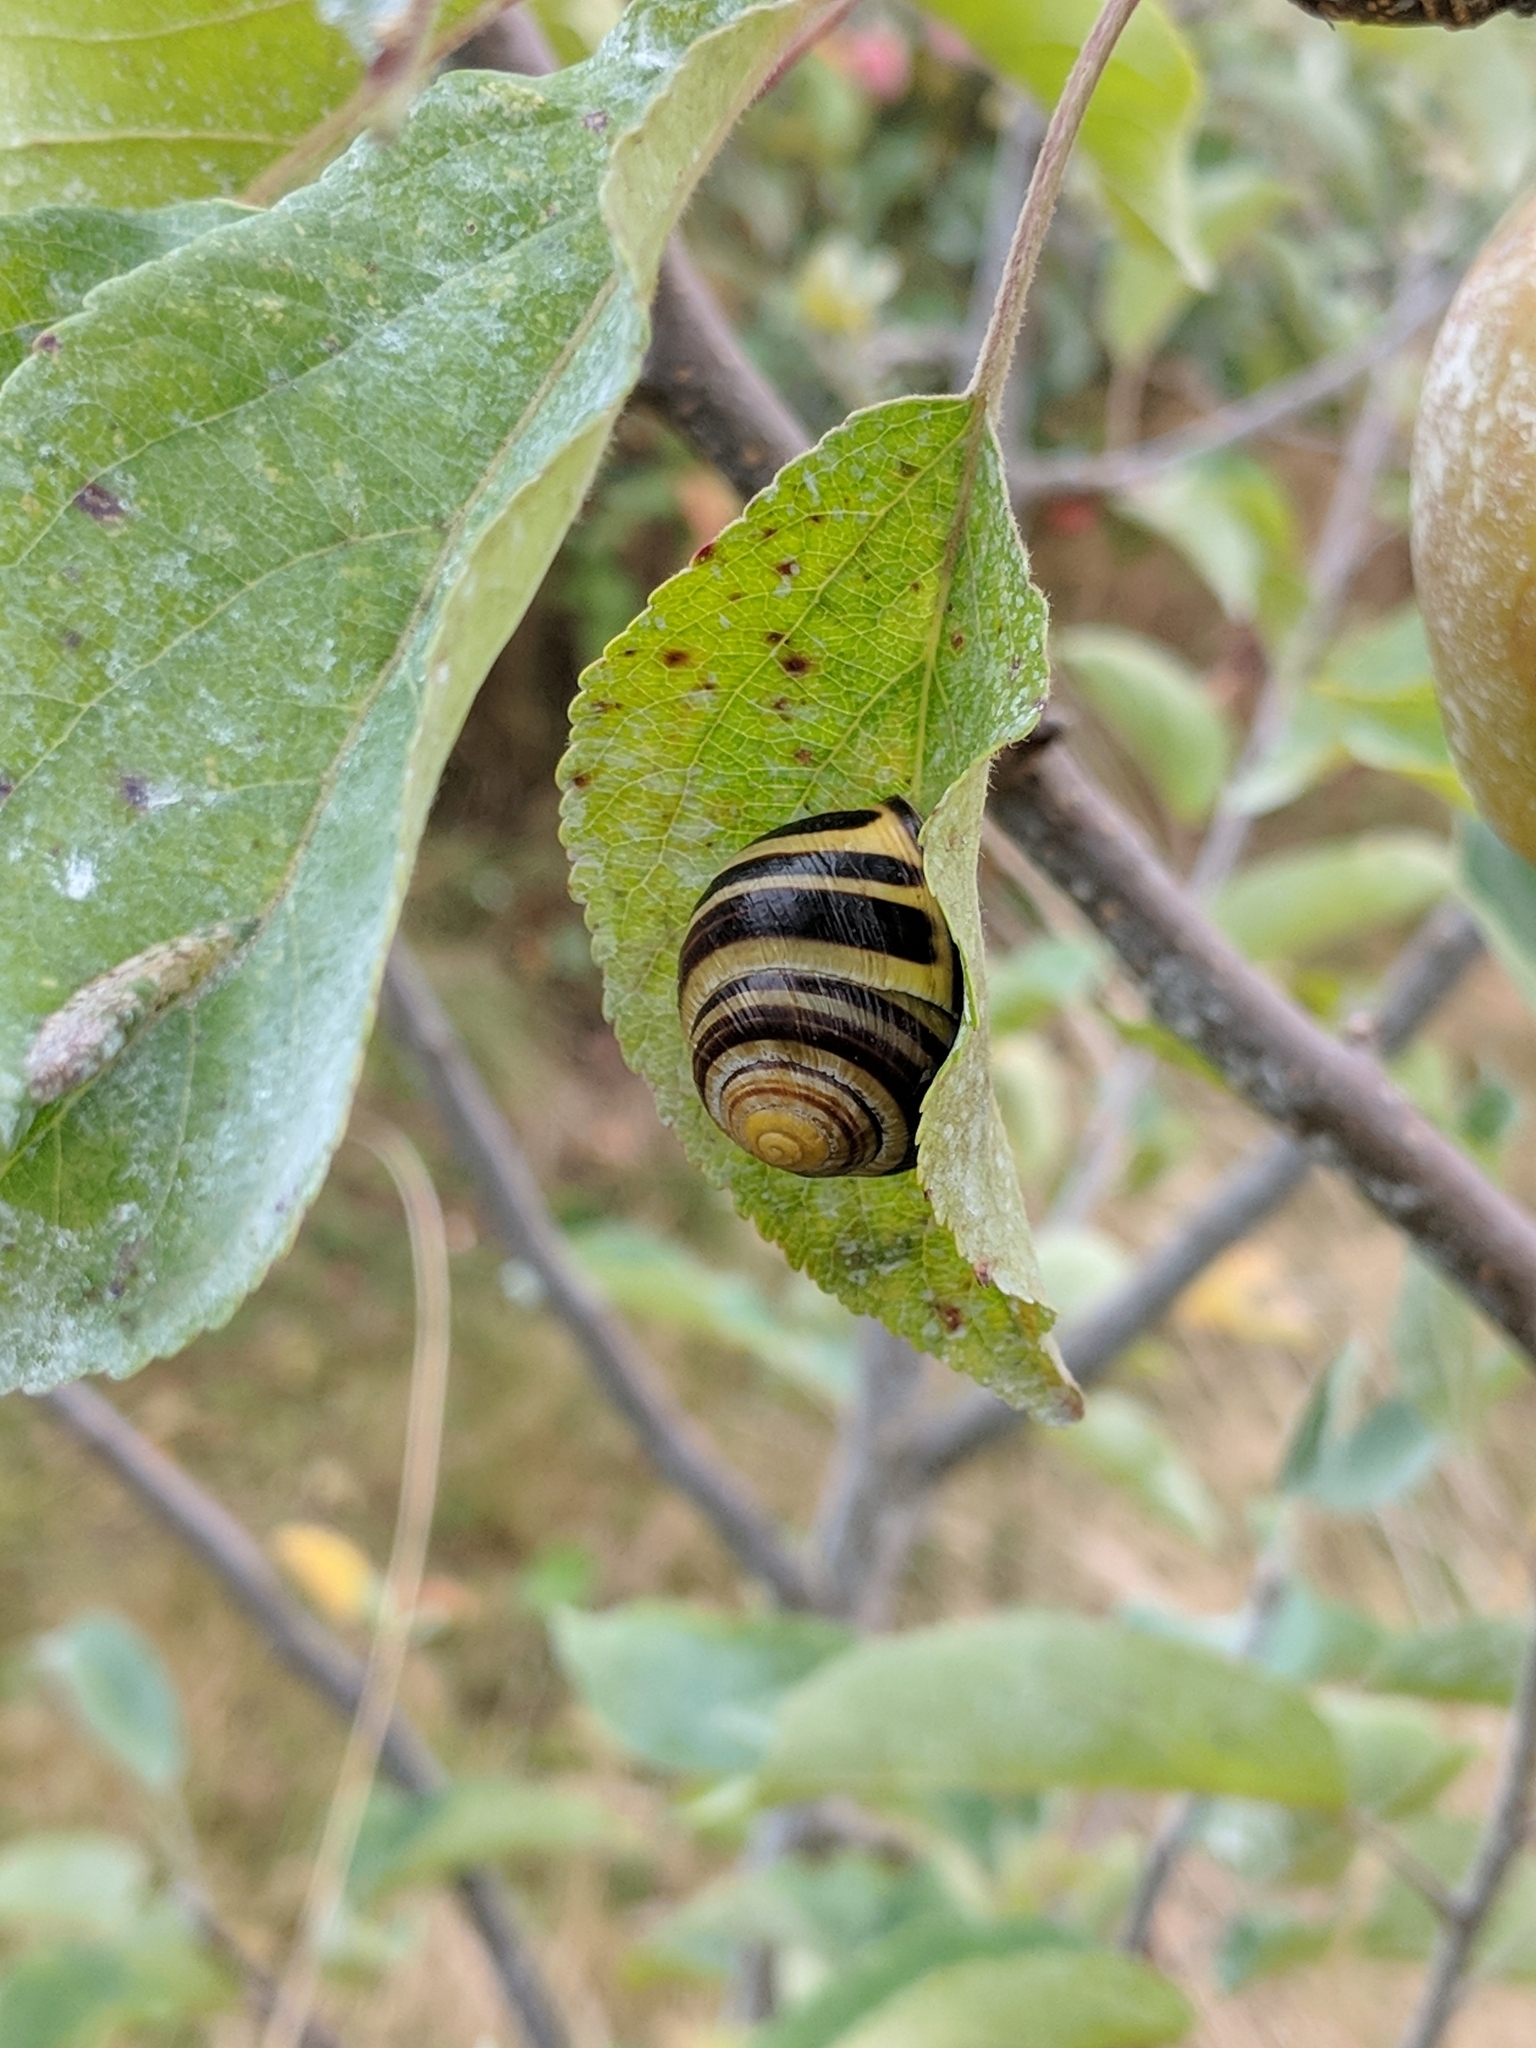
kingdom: Animalia
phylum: Mollusca
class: Gastropoda
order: Stylommatophora
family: Helicidae
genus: Cepaea
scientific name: Cepaea nemoralis
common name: Grovesnail
